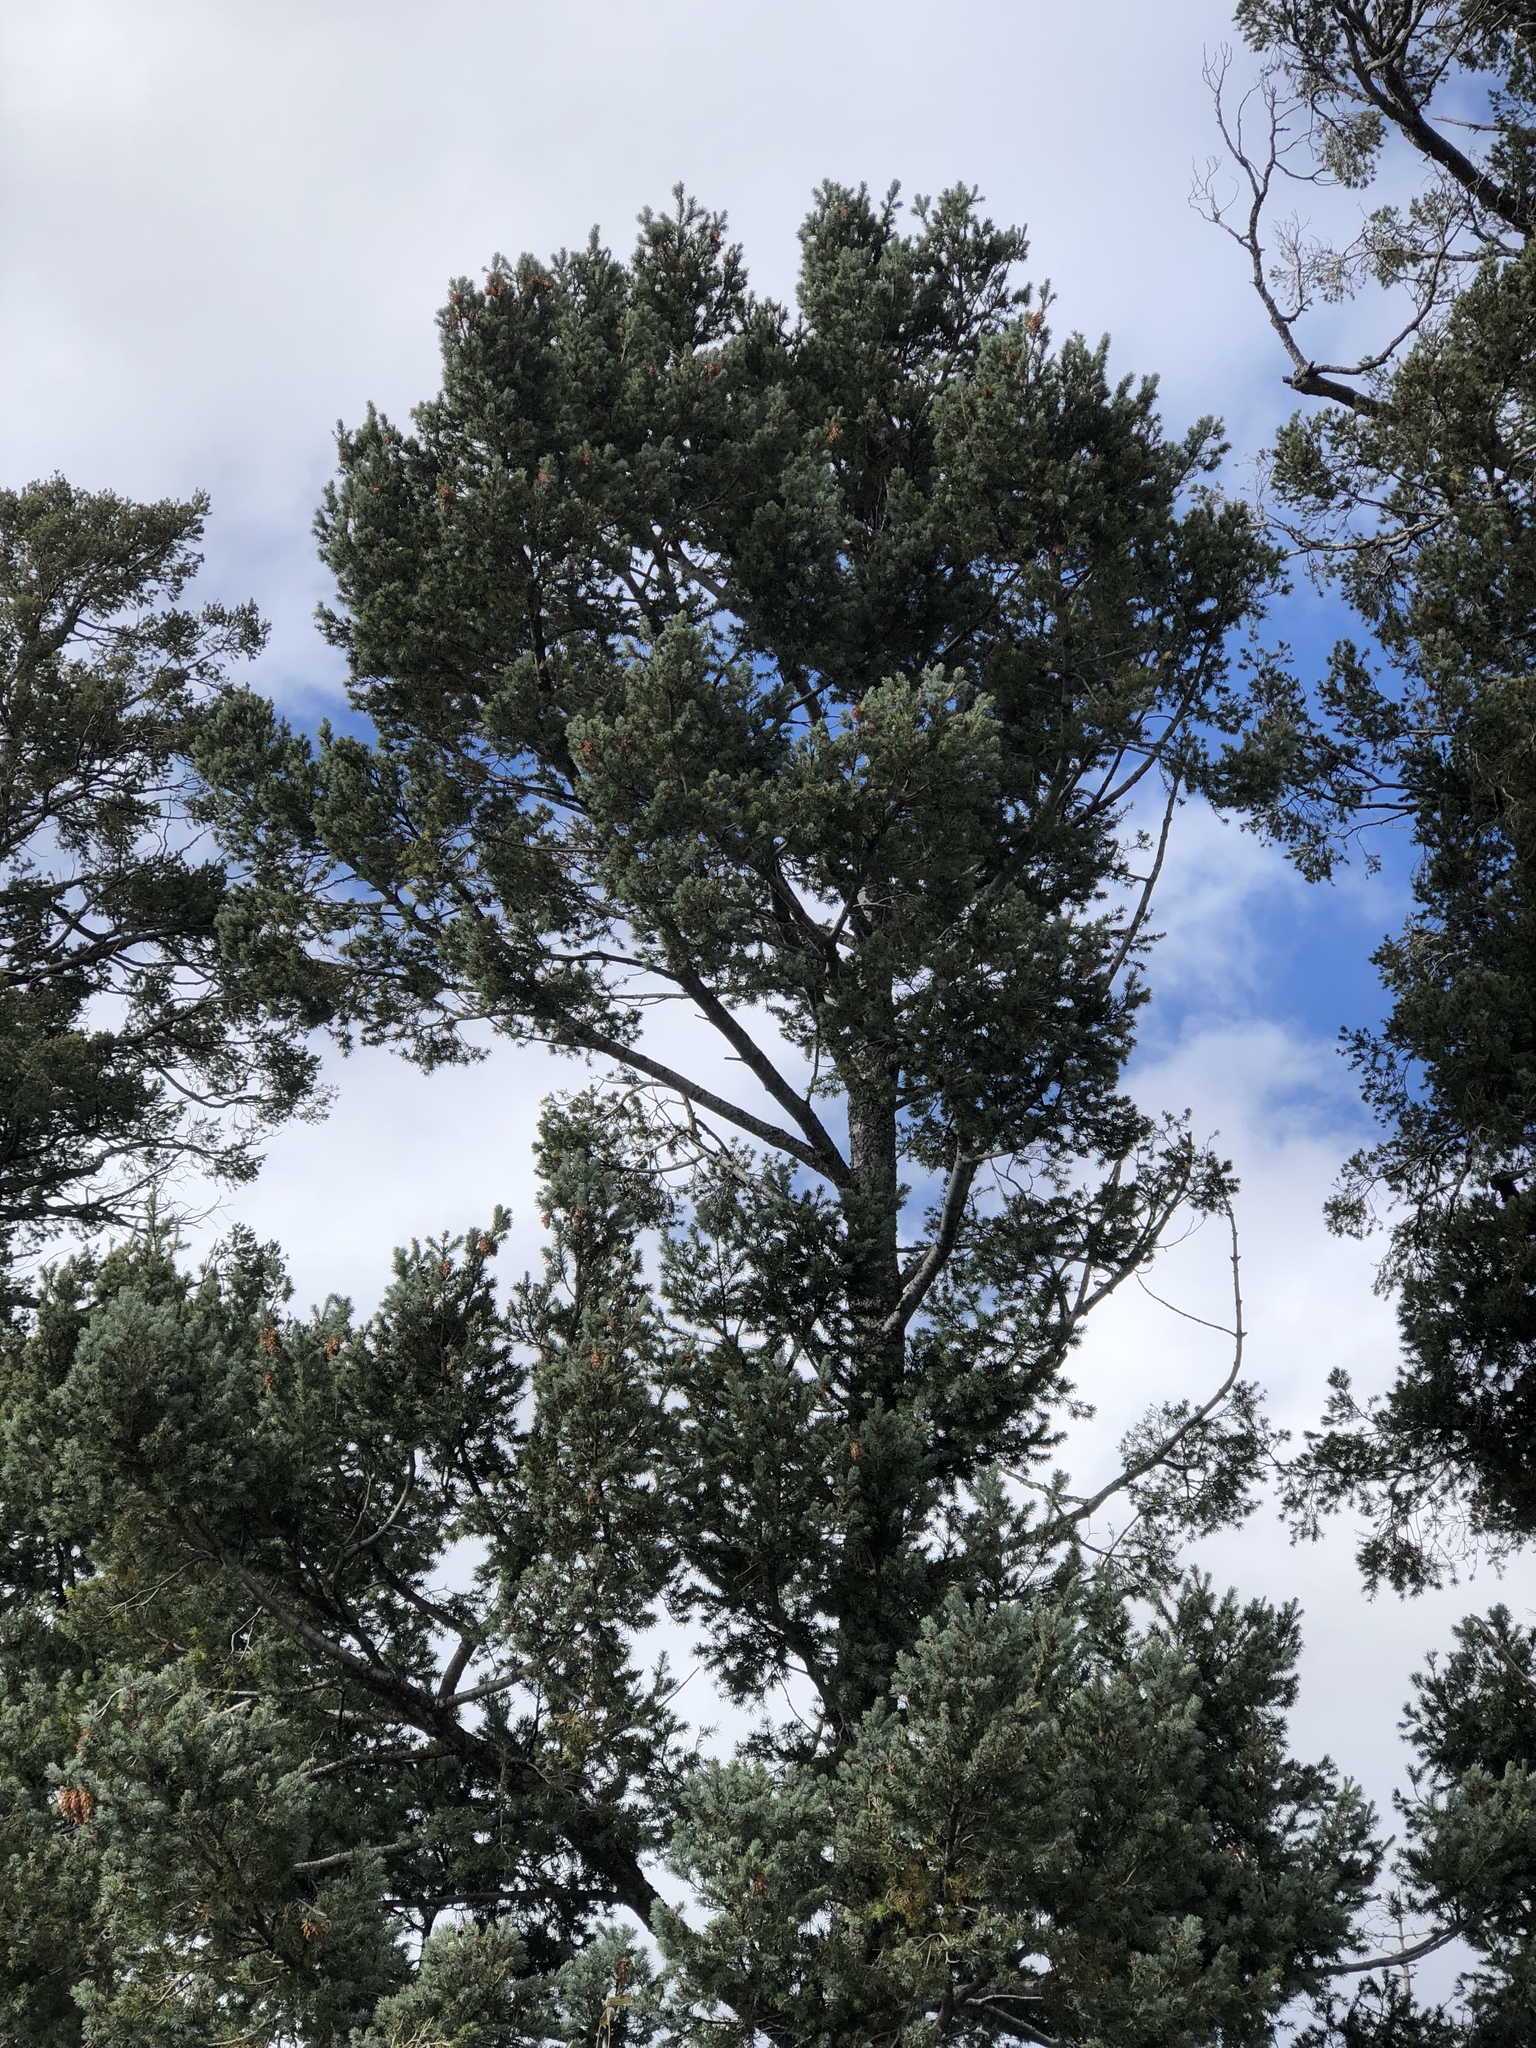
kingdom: Plantae
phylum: Tracheophyta
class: Pinopsida
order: Pinales
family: Pinaceae
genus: Pseudotsuga
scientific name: Pseudotsuga menziesii
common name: Douglas fir
